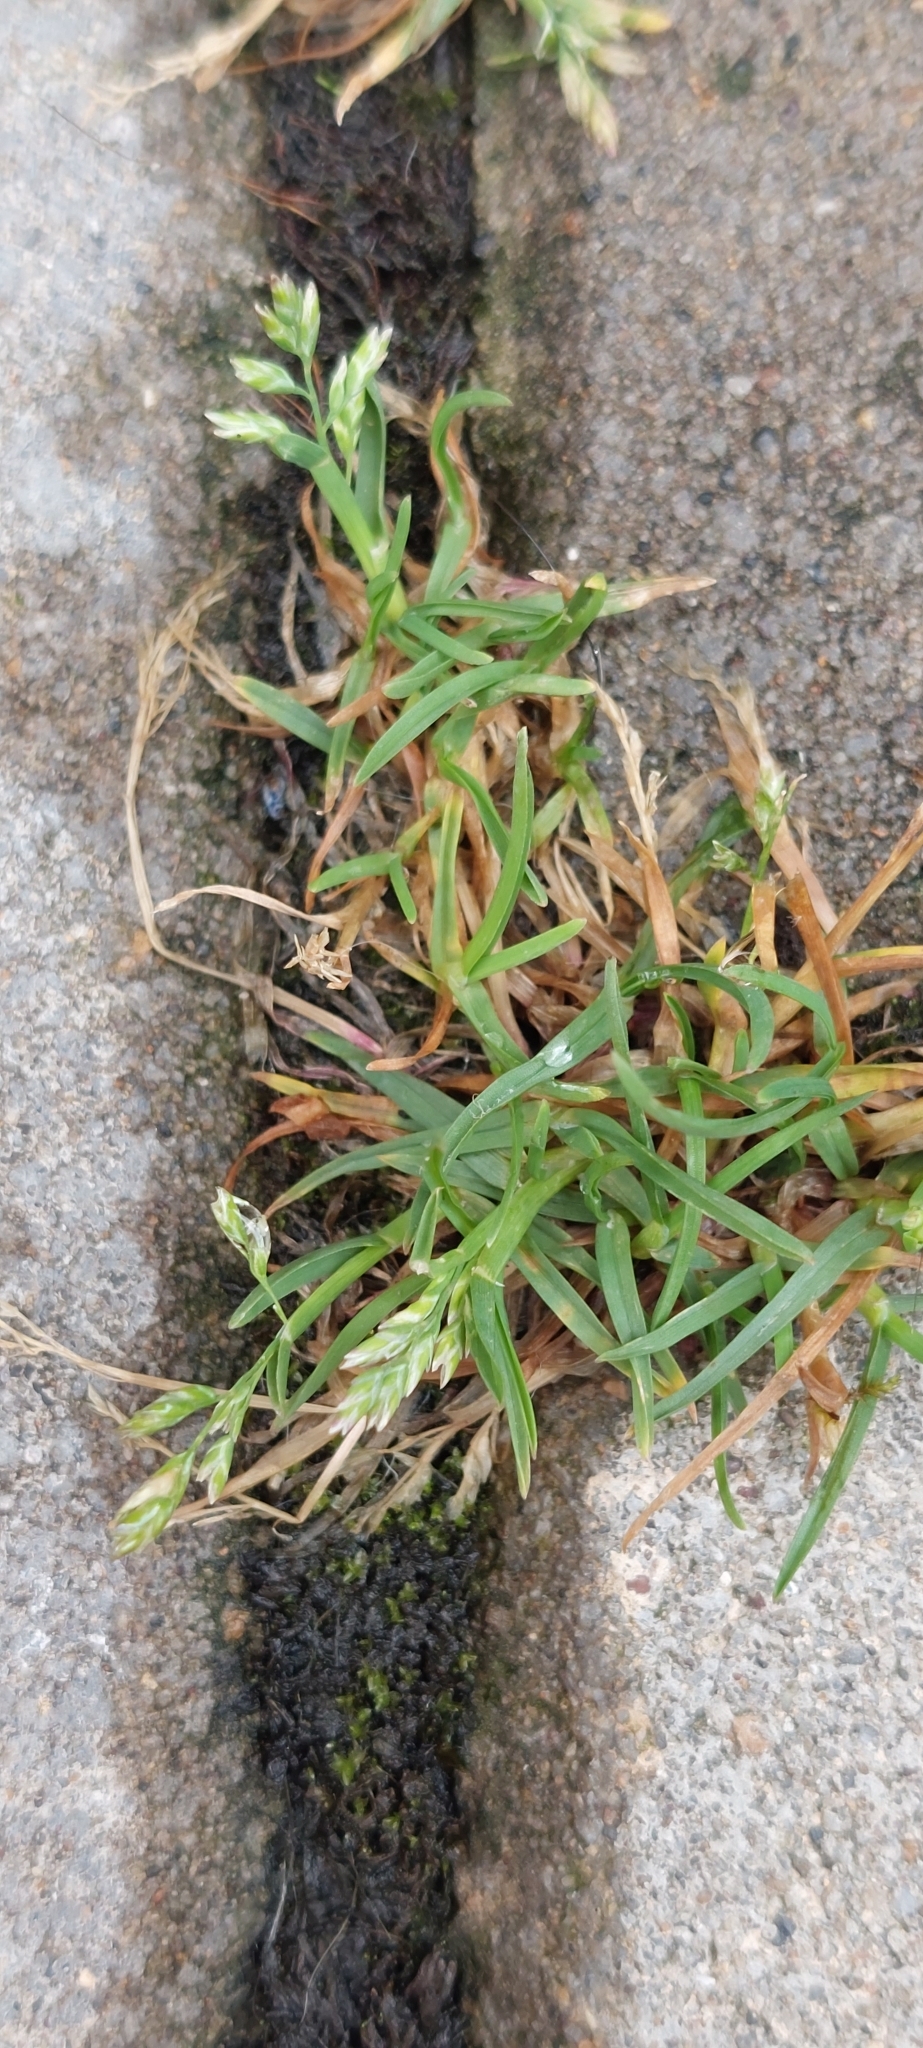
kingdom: Plantae
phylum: Tracheophyta
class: Liliopsida
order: Poales
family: Poaceae
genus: Poa
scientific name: Poa annua
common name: Annual bluegrass
